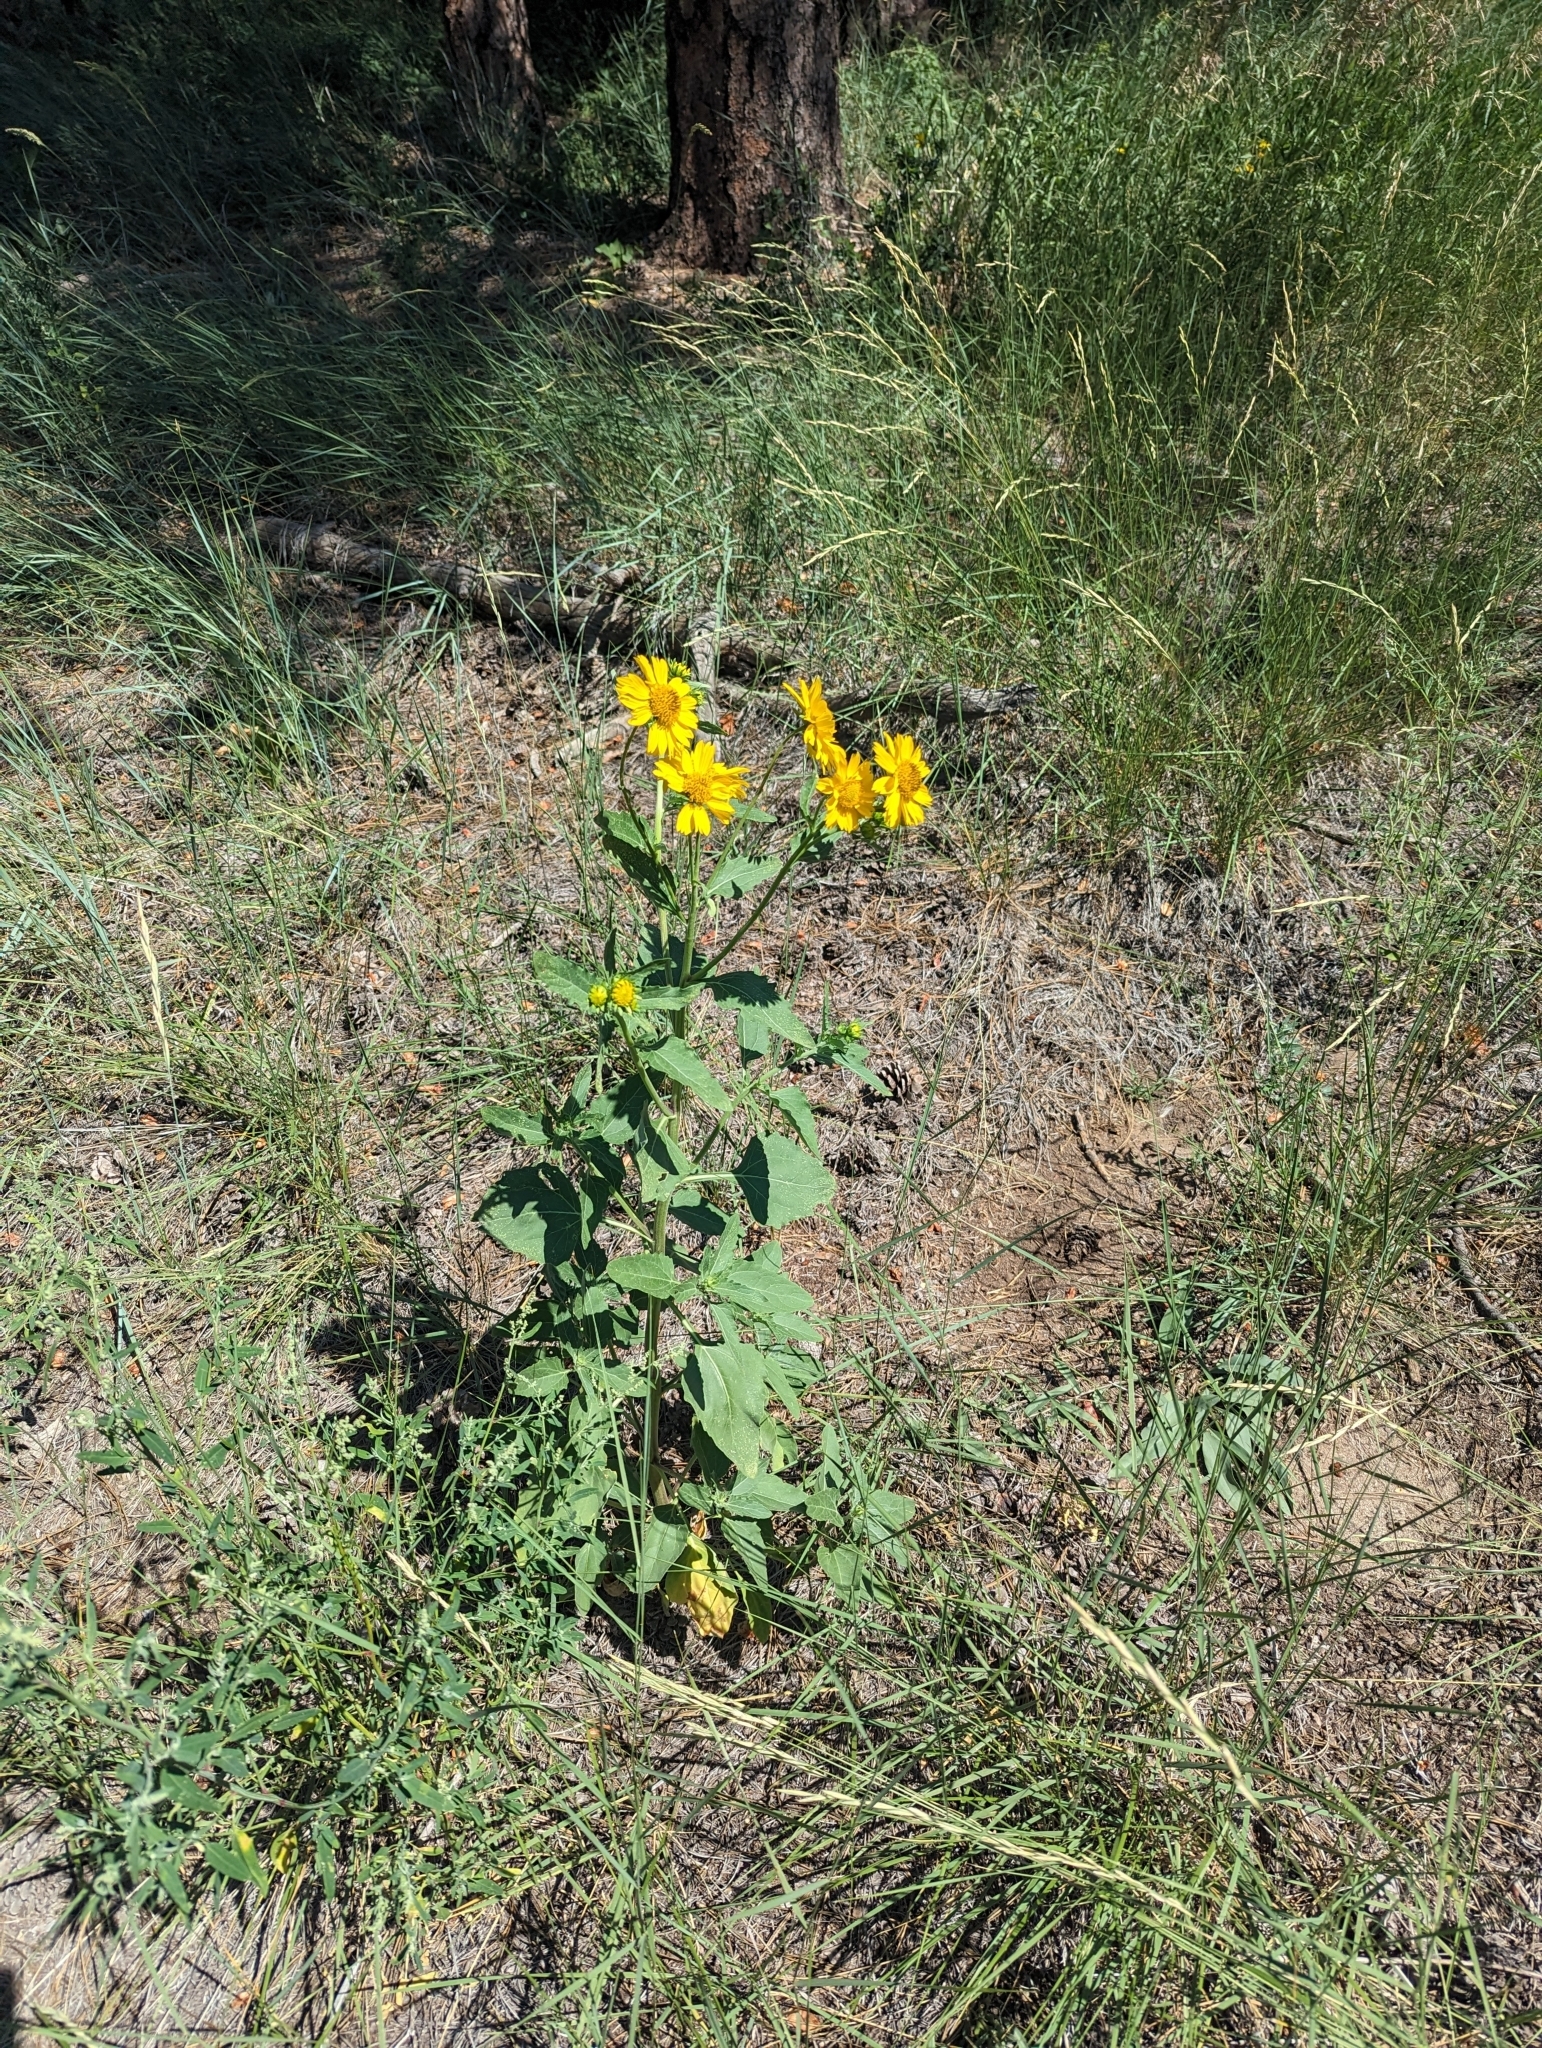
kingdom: Plantae
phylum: Tracheophyta
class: Magnoliopsida
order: Asterales
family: Asteraceae
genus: Verbesina
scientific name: Verbesina encelioides
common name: Golden crownbeard
